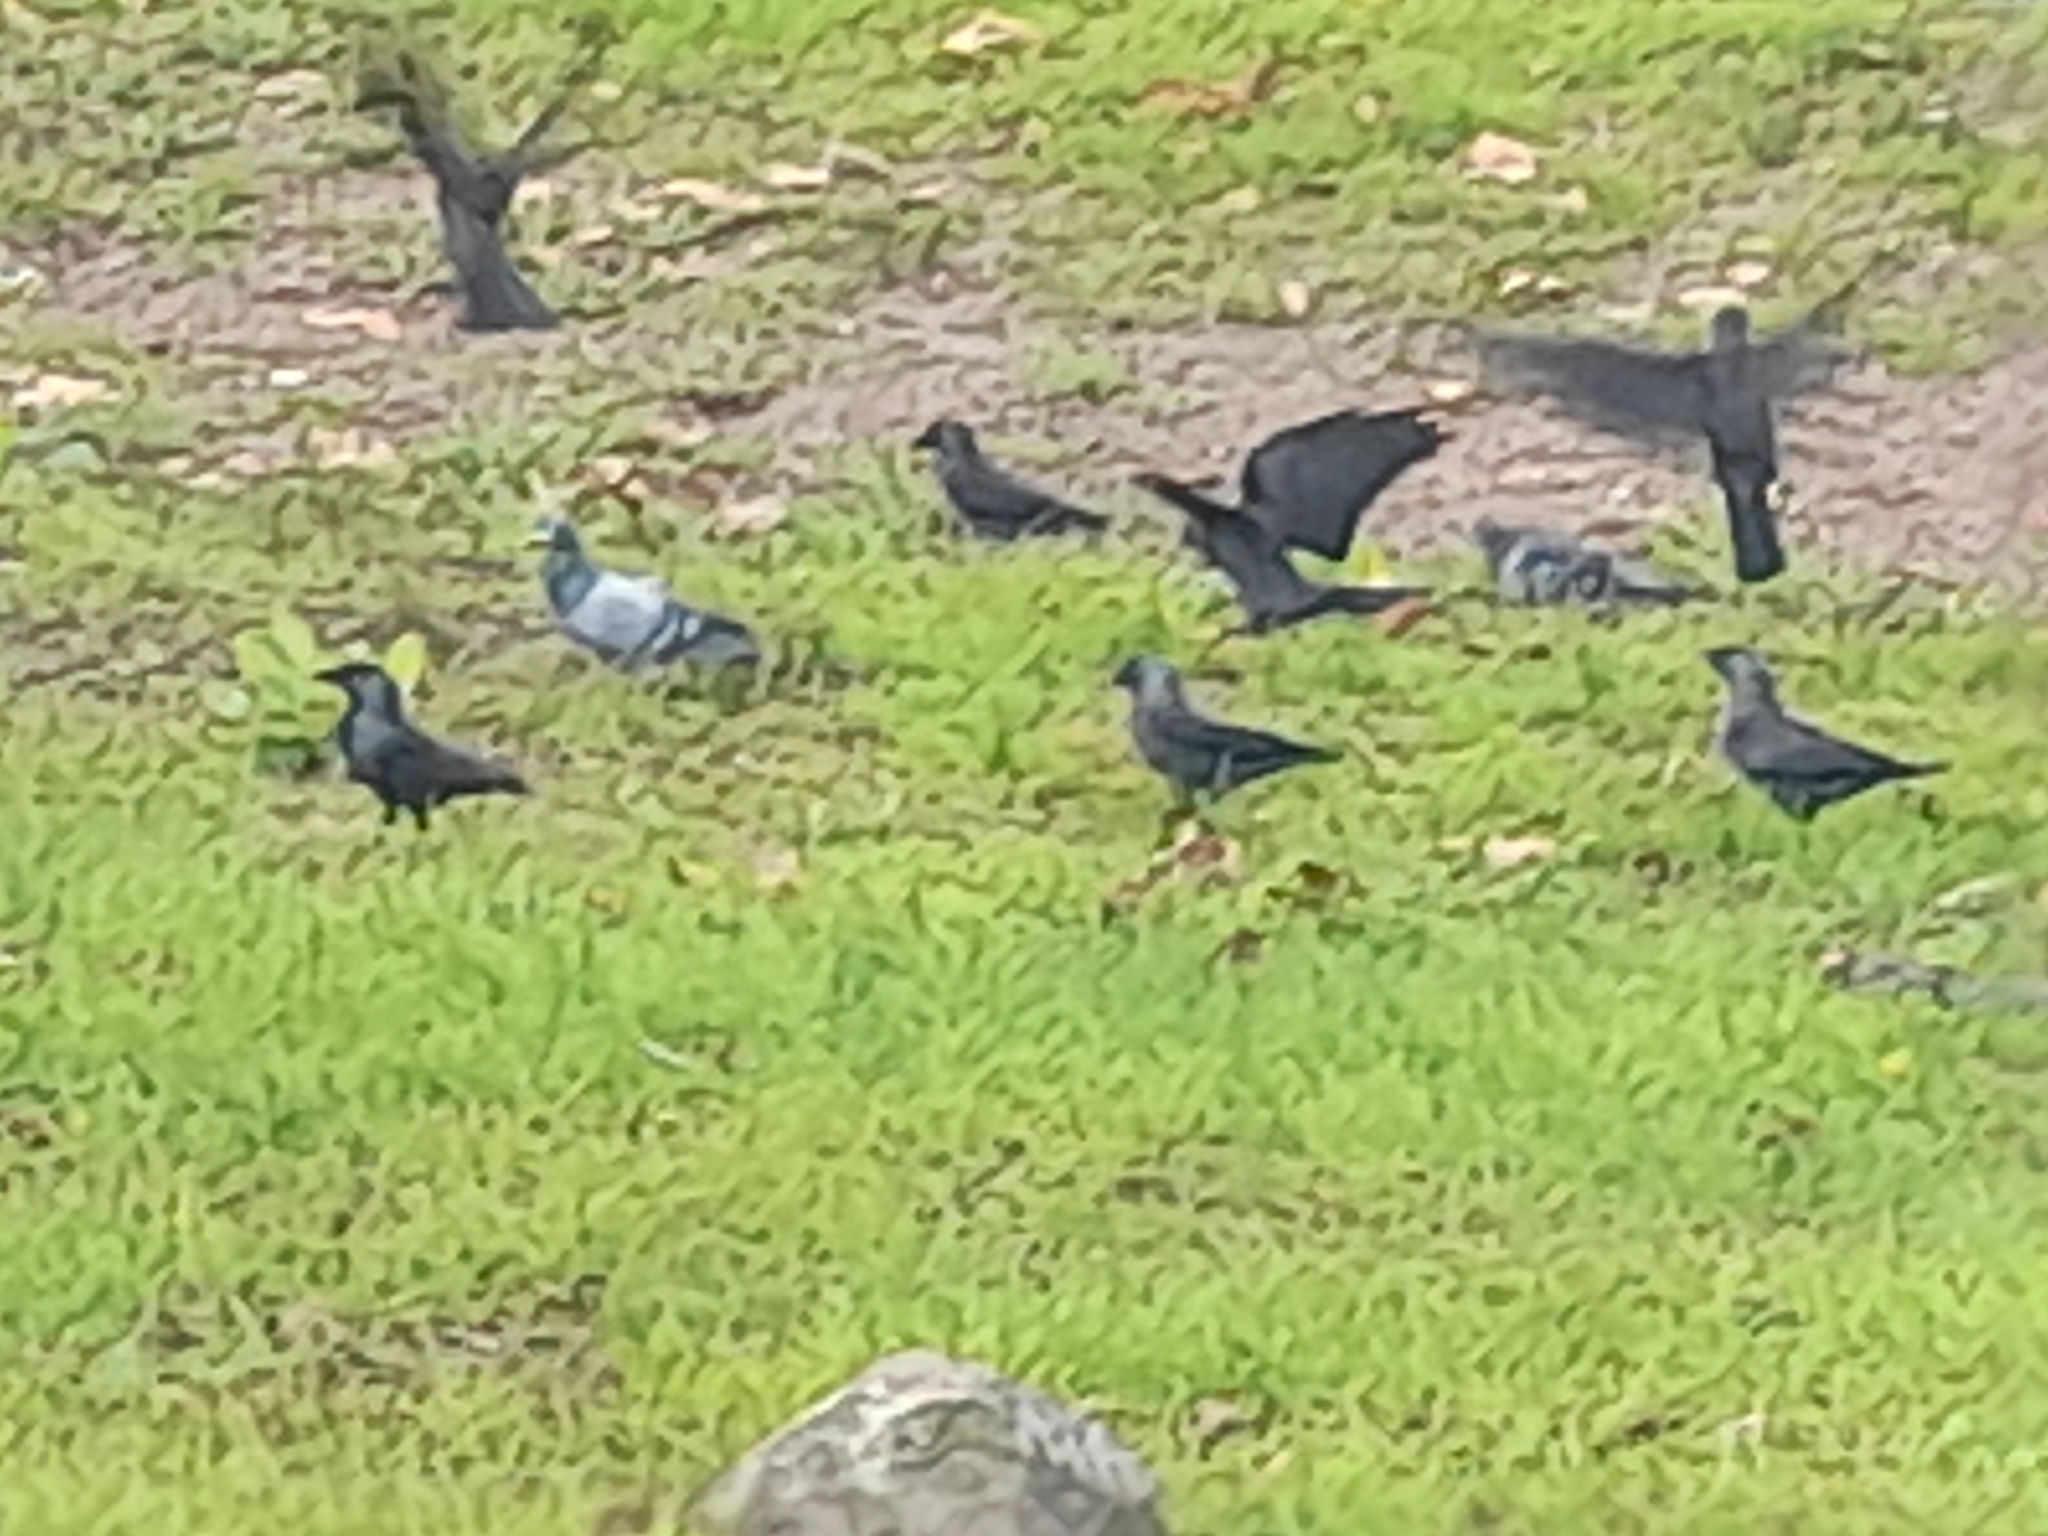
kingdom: Animalia
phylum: Chordata
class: Aves
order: Passeriformes
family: Corvidae
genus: Coloeus
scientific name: Coloeus monedula
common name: Western jackdaw
